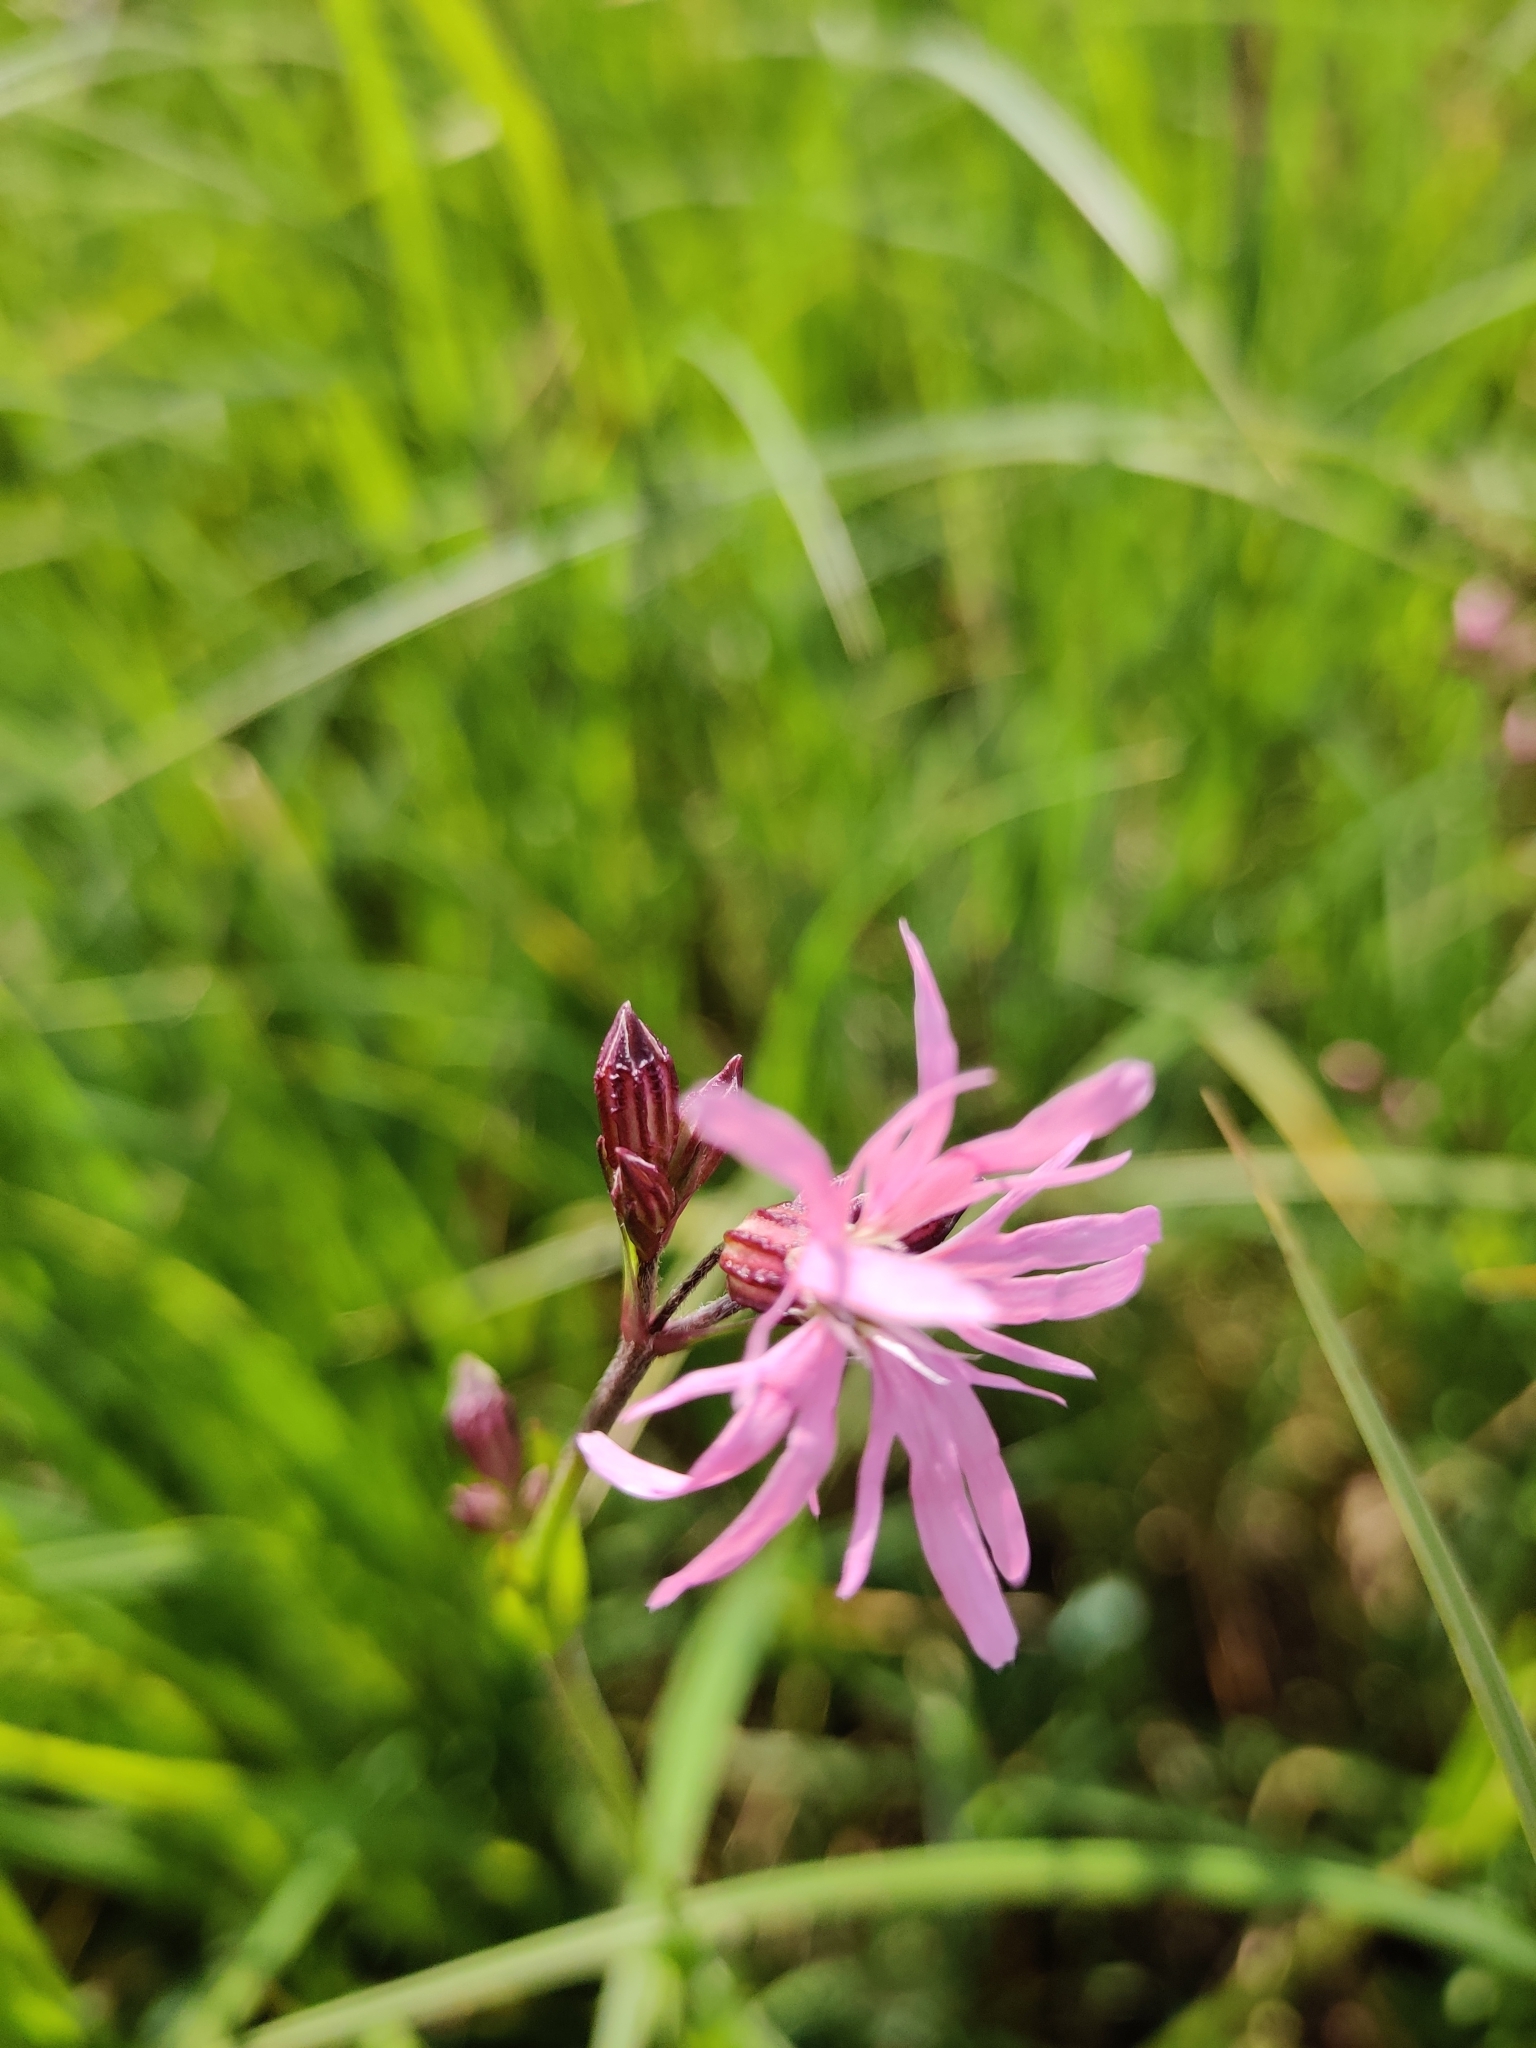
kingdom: Plantae
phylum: Tracheophyta
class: Magnoliopsida
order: Caryophyllales
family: Caryophyllaceae
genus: Silene
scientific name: Silene flos-cuculi
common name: Ragged-robin
